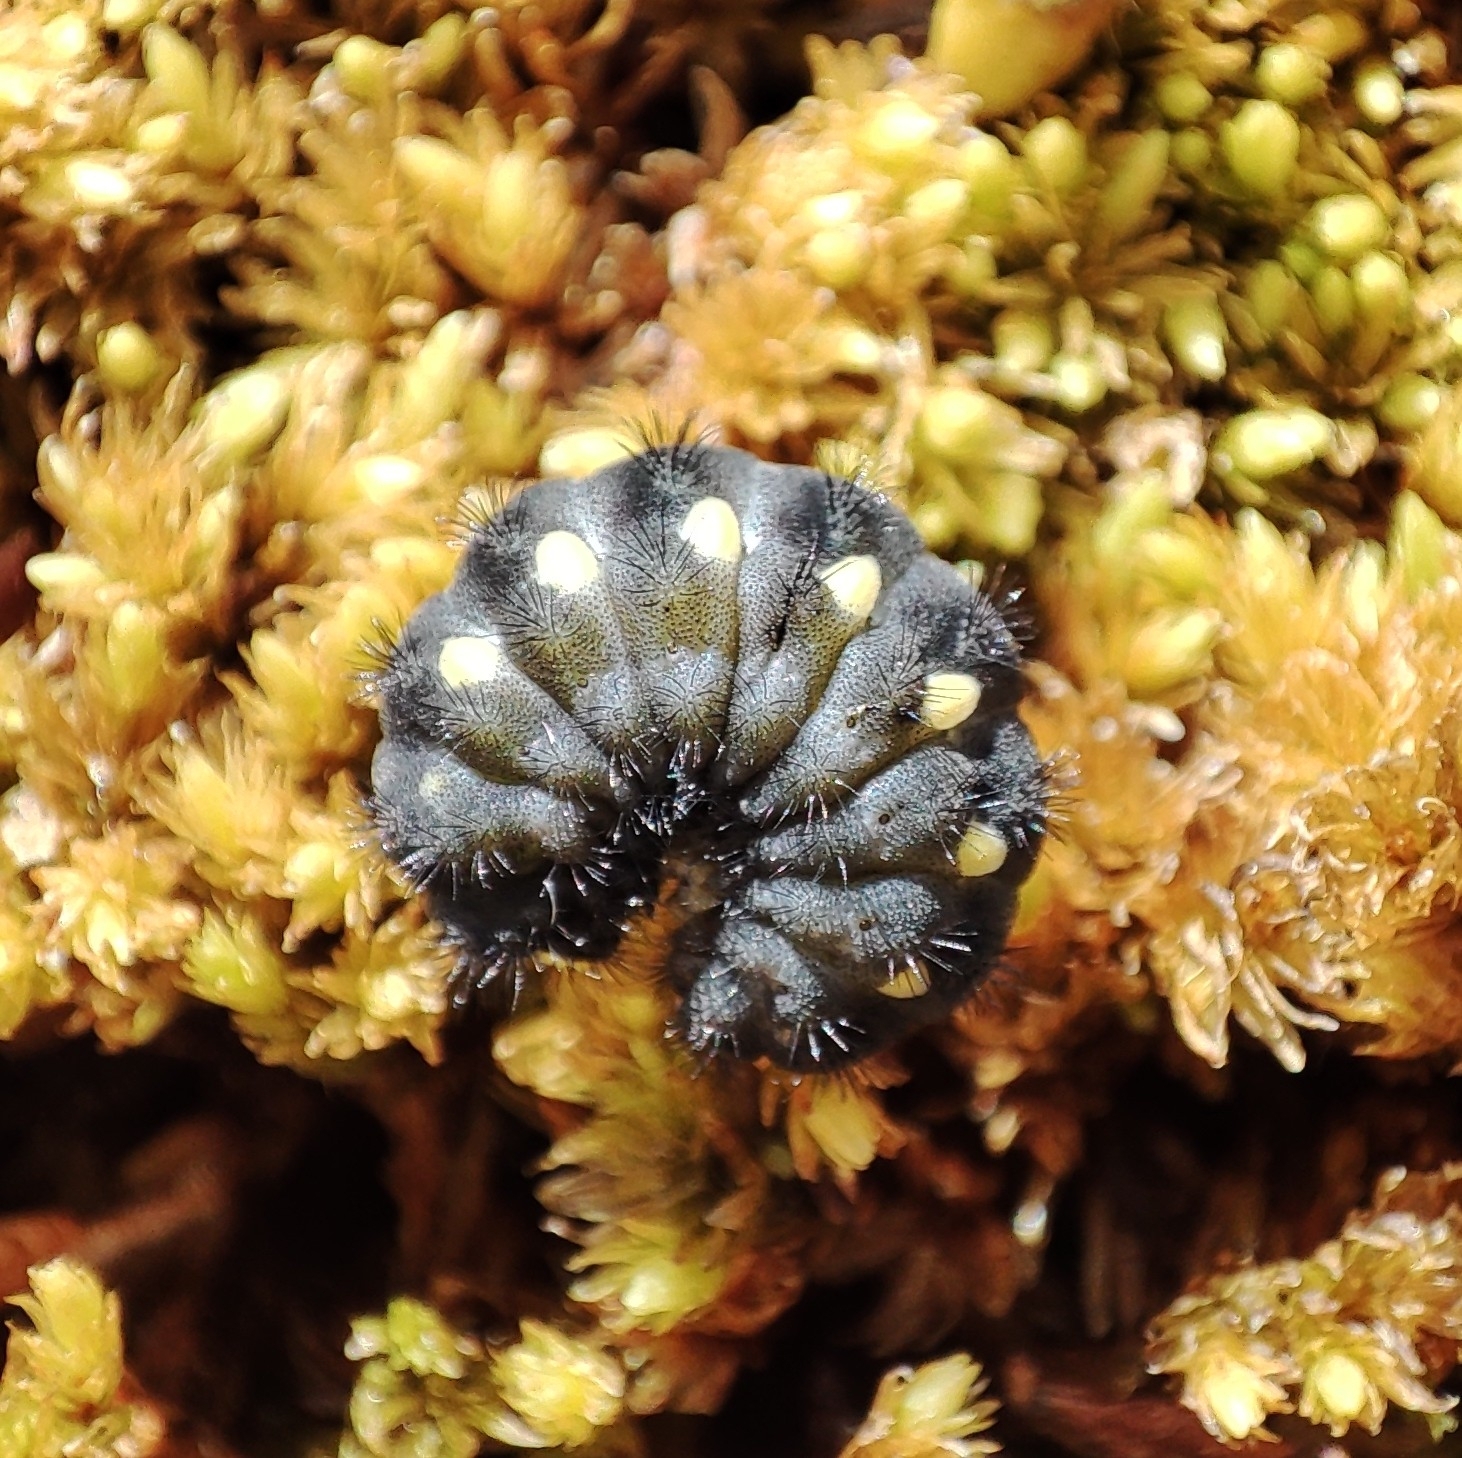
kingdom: Animalia
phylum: Arthropoda
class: Insecta
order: Lepidoptera
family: Zygaenidae
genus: Zygaena
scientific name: Zygaena exulans
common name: Scotch burnet
